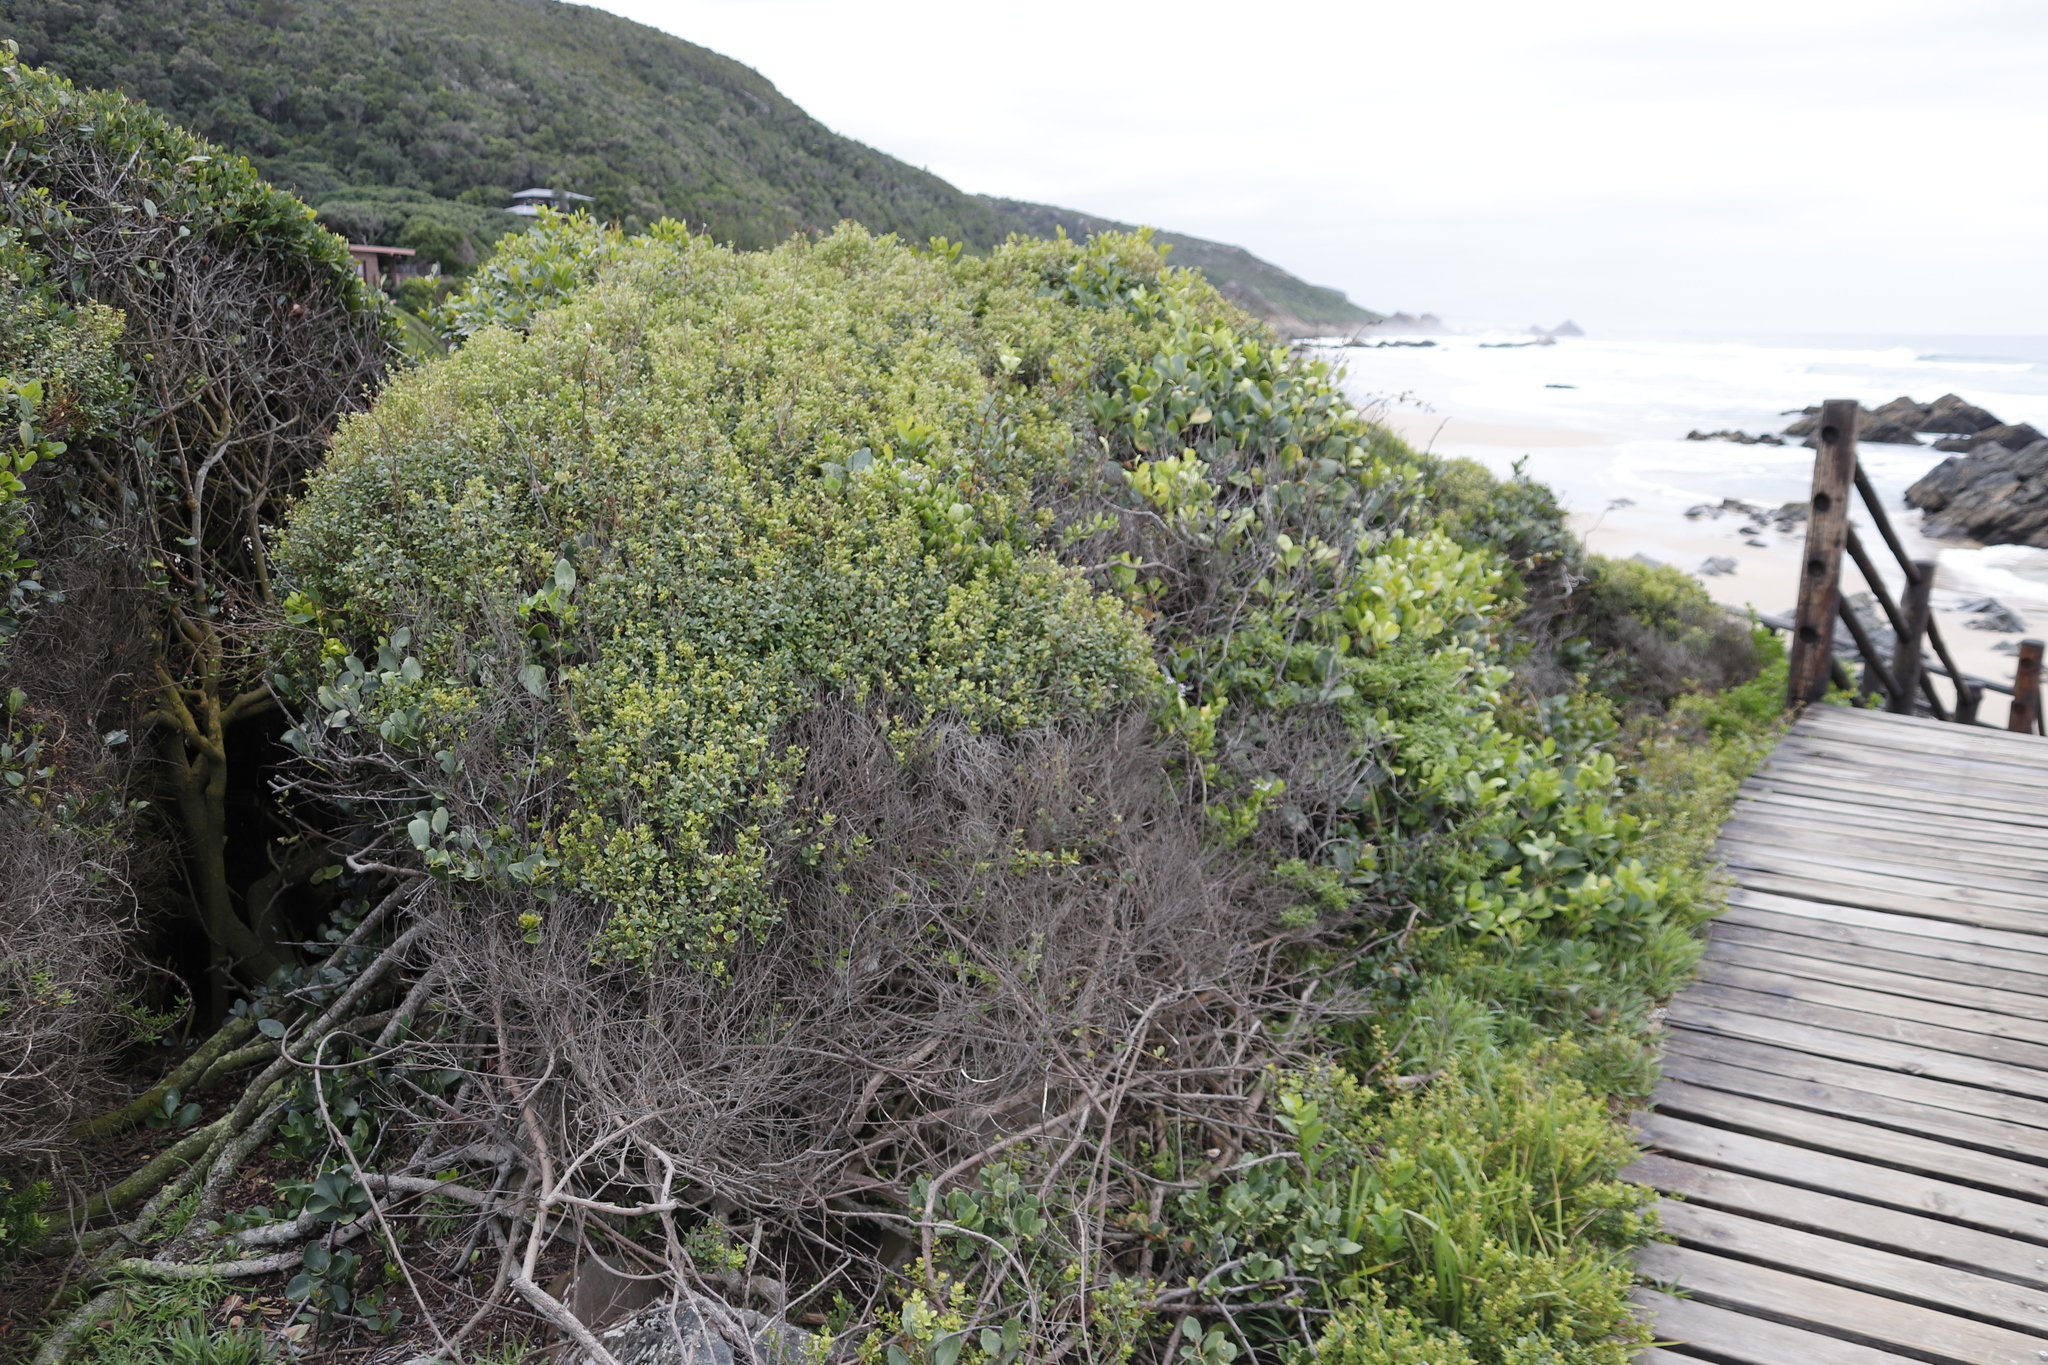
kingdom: Plantae
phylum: Tracheophyta
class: Magnoliopsida
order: Sapindales
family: Anacardiaceae
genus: Searsia
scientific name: Searsia crenata
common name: Crowberry
